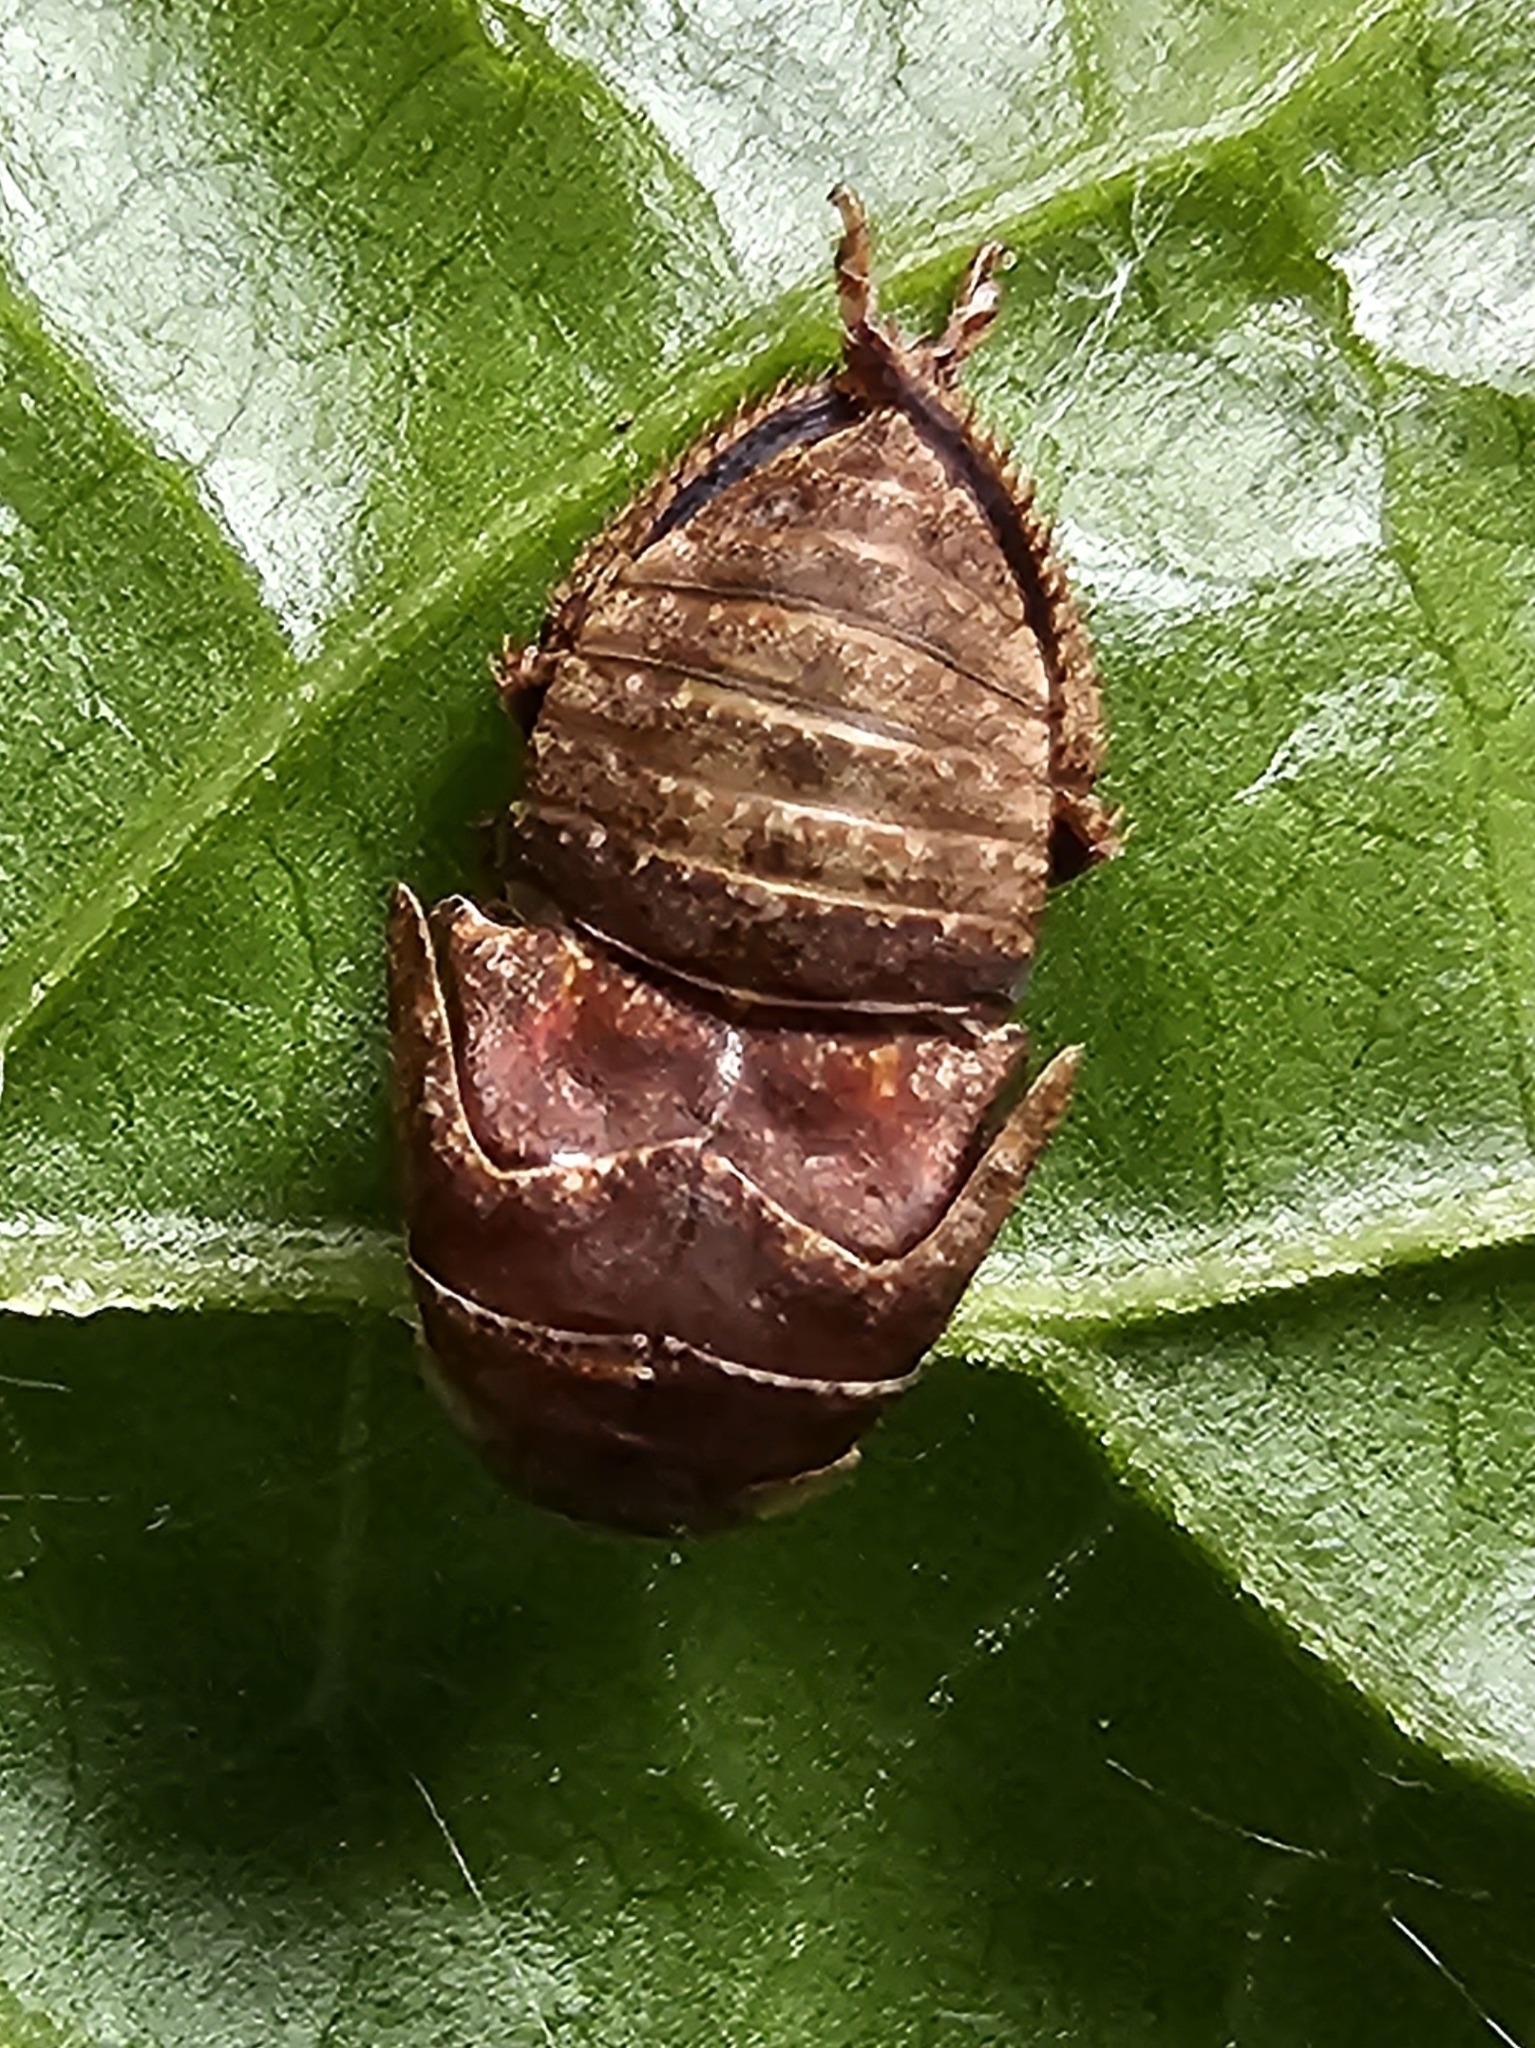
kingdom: Animalia
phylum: Arthropoda
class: Insecta
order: Hemiptera
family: Cicadellidae
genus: Penthimia
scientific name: Penthimia americana
